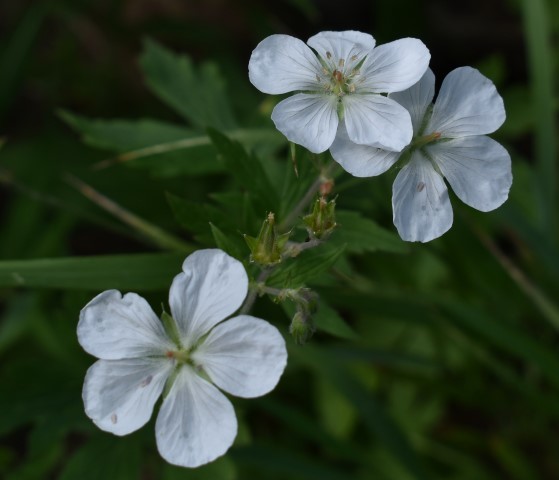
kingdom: Plantae
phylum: Tracheophyta
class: Magnoliopsida
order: Geraniales
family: Geraniaceae
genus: Geranium
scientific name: Geranium richardsonii
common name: Richardson's crane's-bill
